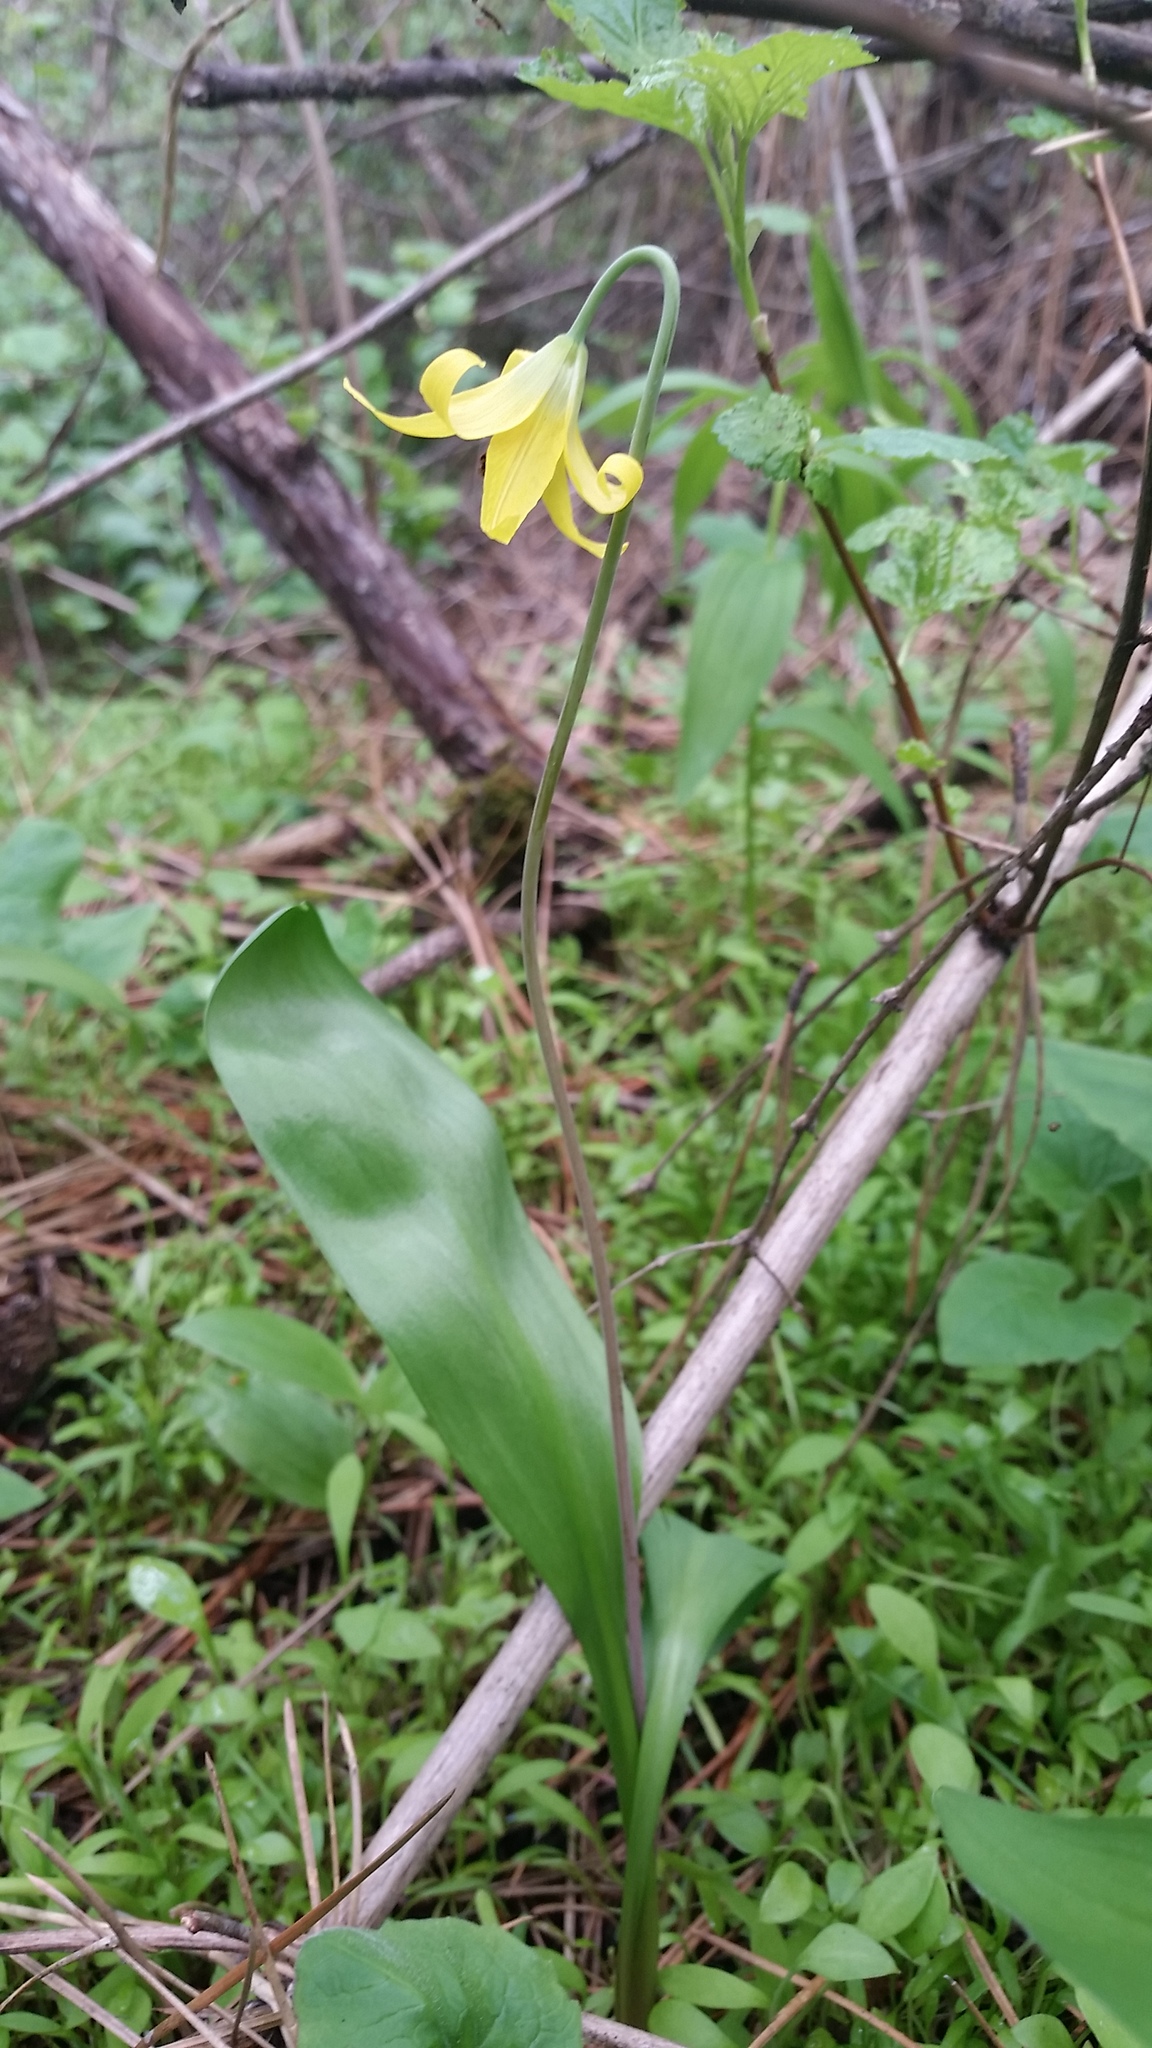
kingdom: Plantae
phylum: Tracheophyta
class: Liliopsida
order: Liliales
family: Liliaceae
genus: Erythronium
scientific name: Erythronium grandiflorum
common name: Avalanche-lily
